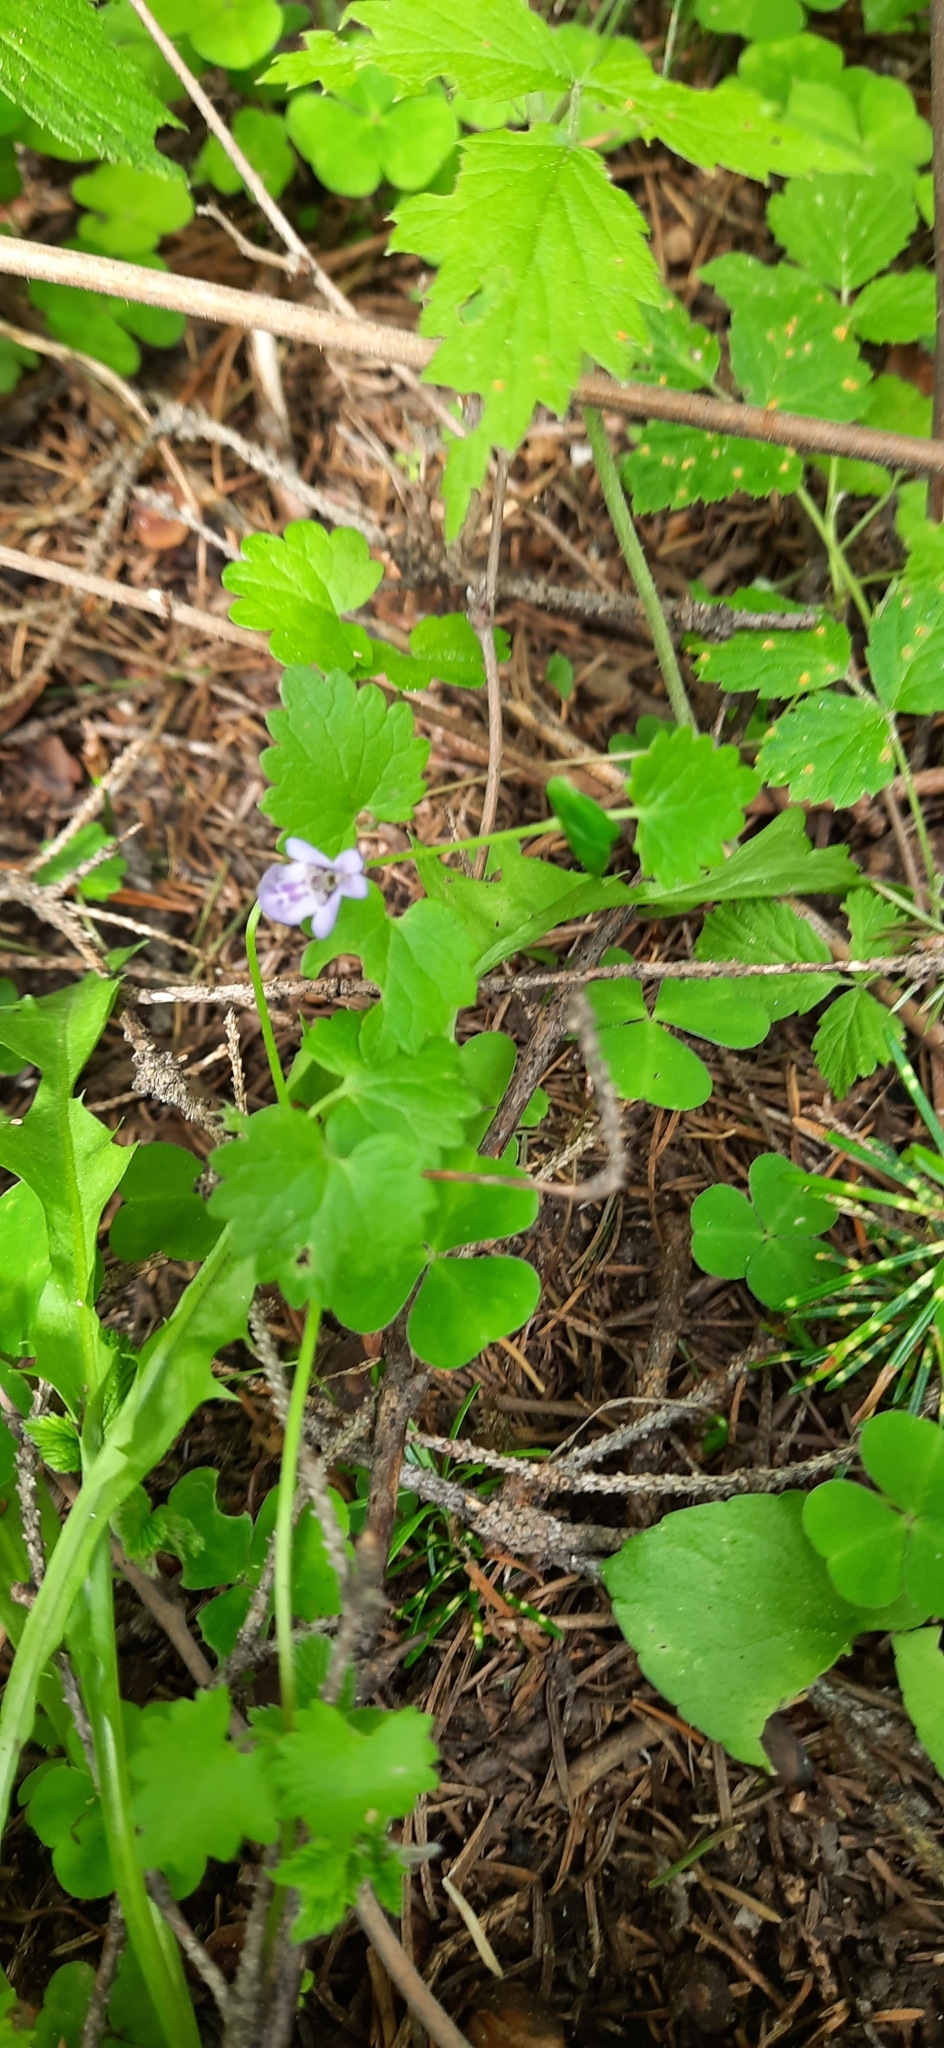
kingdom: Plantae
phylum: Tracheophyta
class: Magnoliopsida
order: Lamiales
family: Lamiaceae
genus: Glechoma
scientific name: Glechoma hederacea
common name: Ground ivy
